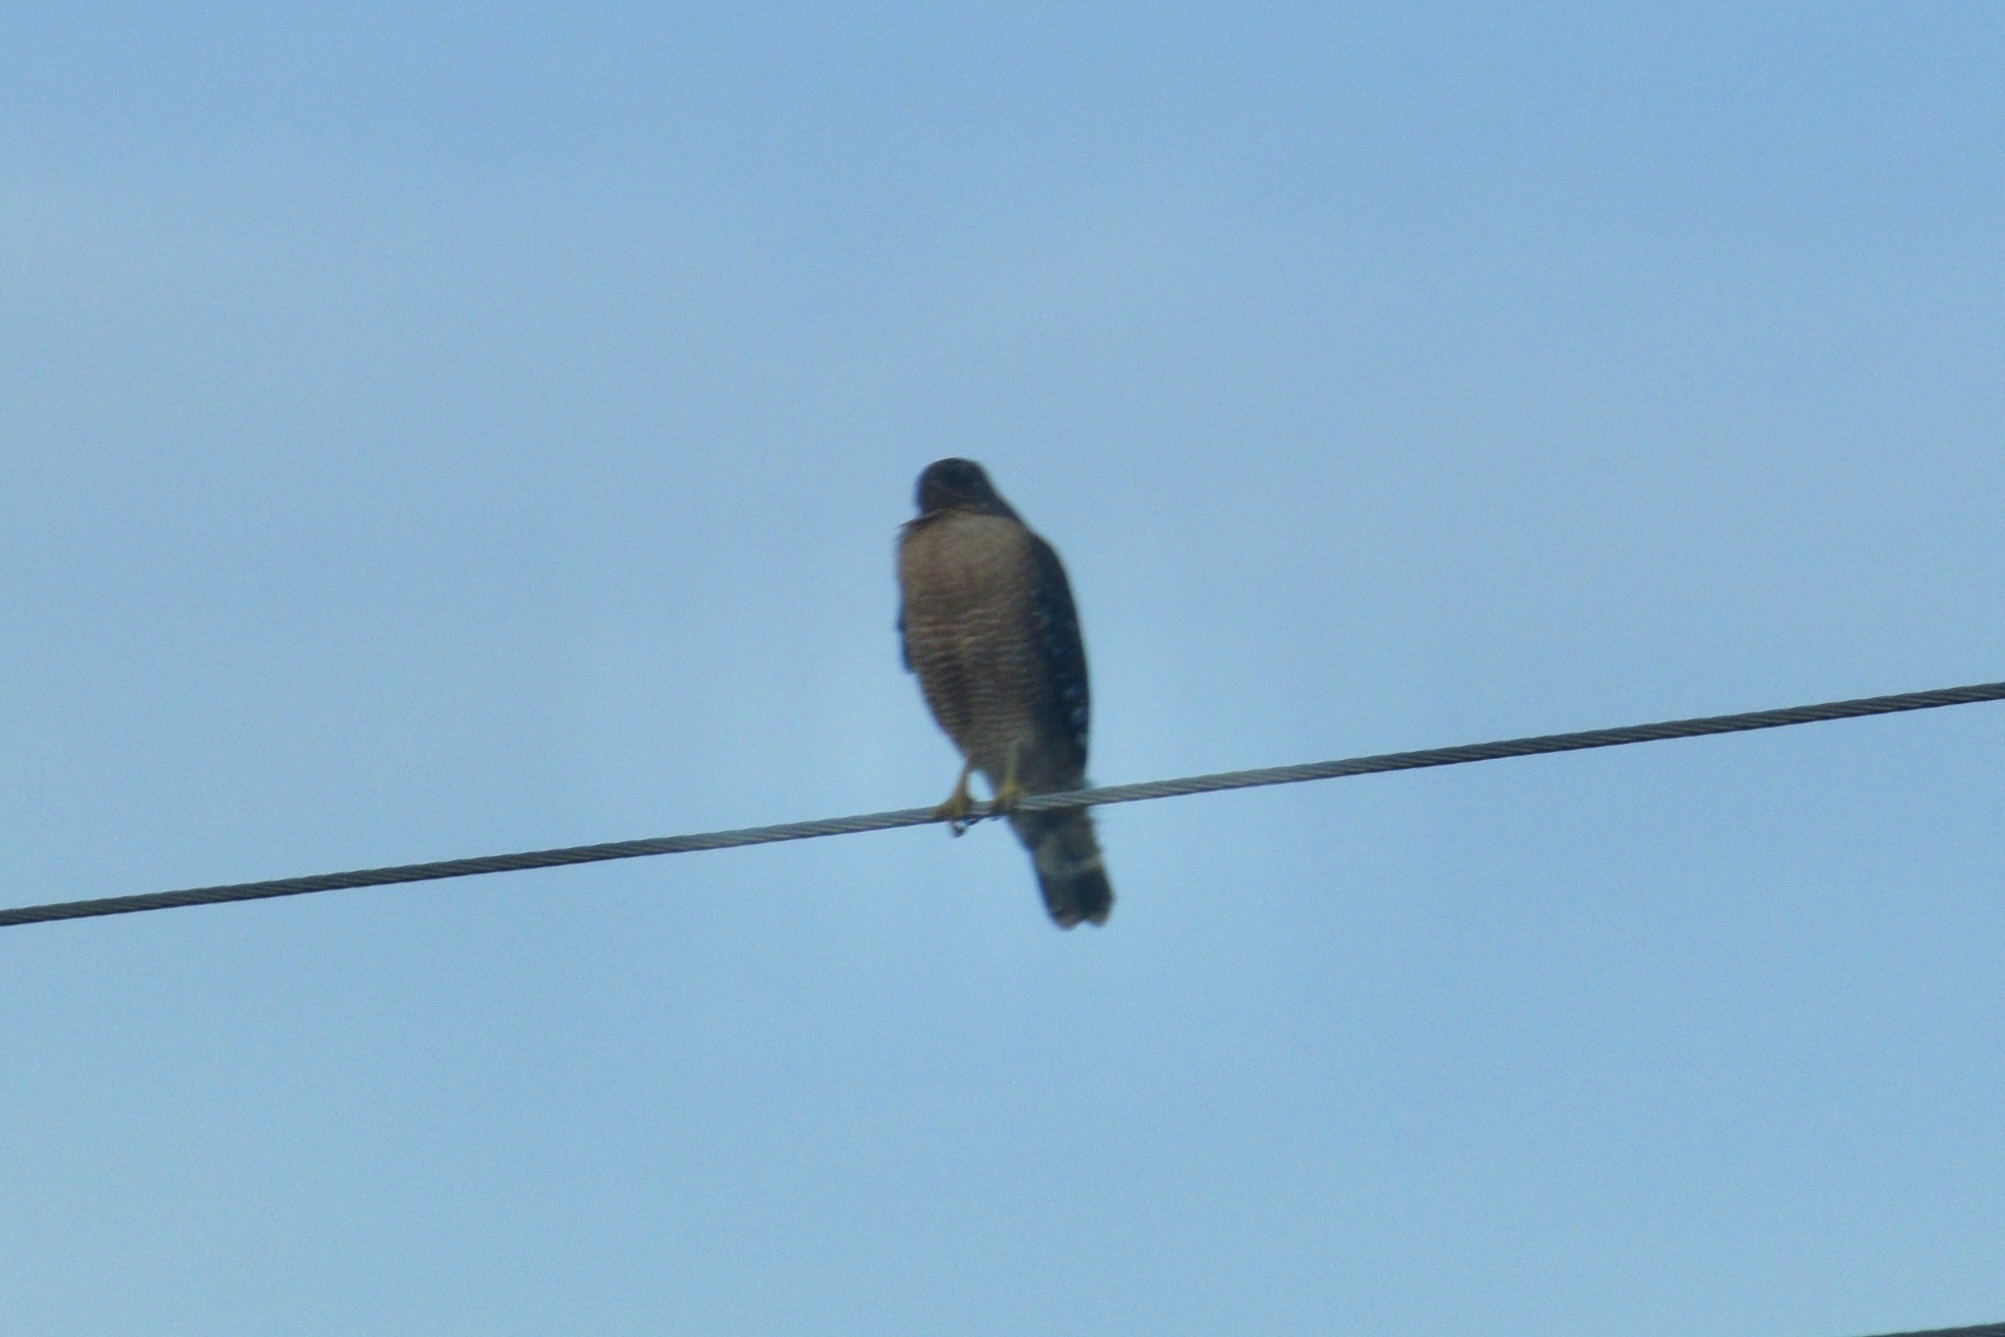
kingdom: Animalia
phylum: Chordata
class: Aves
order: Accipitriformes
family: Accipitridae
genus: Buteo
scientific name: Buteo lineatus
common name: Red-shouldered hawk
